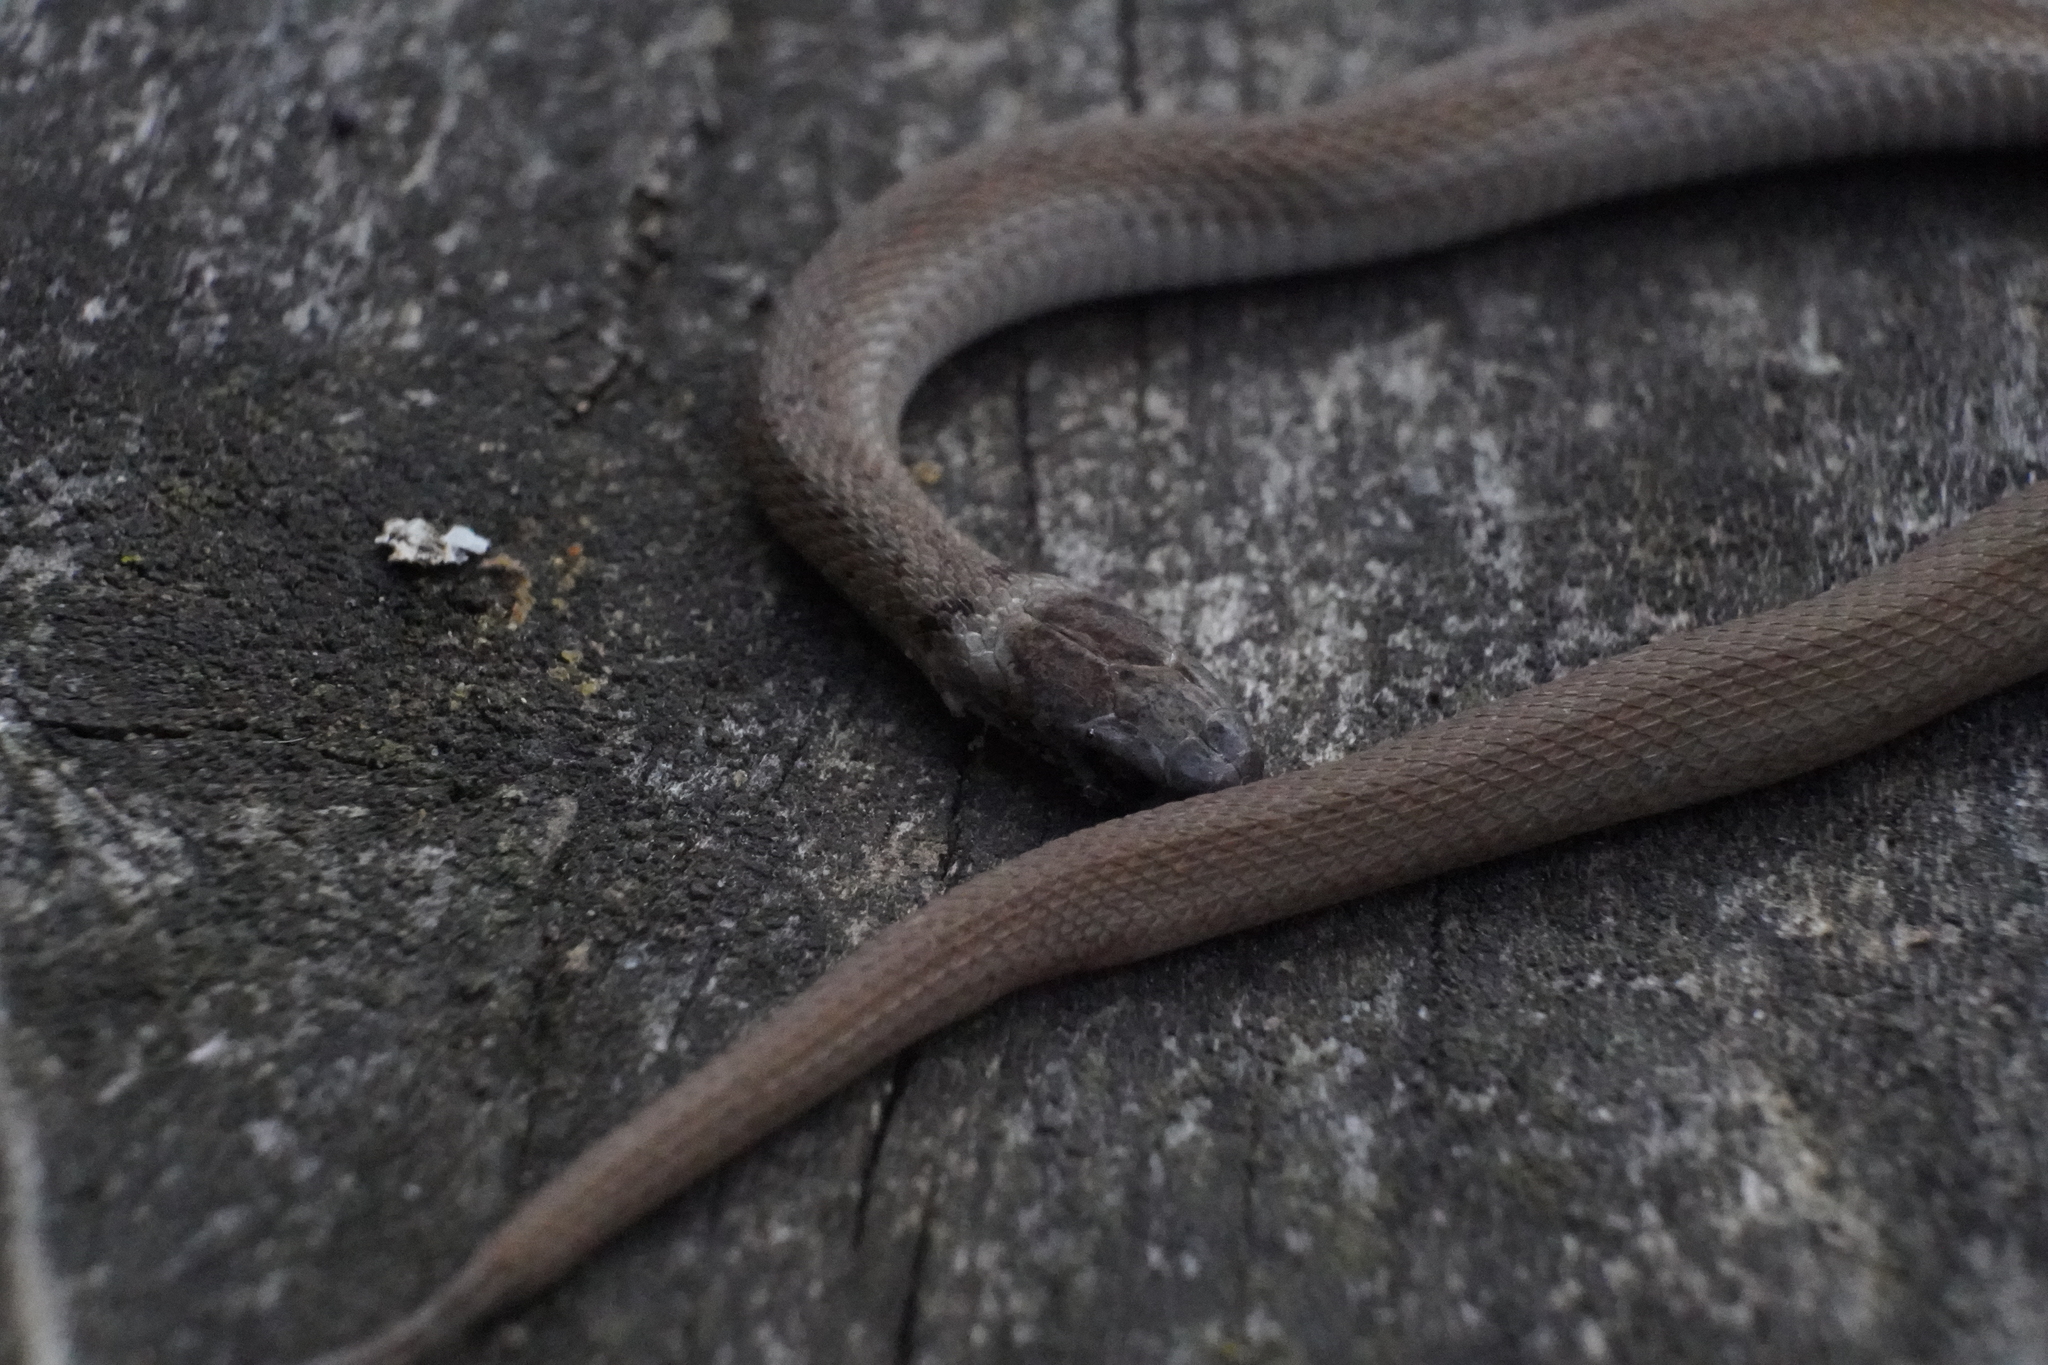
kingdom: Animalia
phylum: Chordata
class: Squamata
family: Colubridae
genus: Storeria
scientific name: Storeria dekayi
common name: (dekay’s) brown snake
